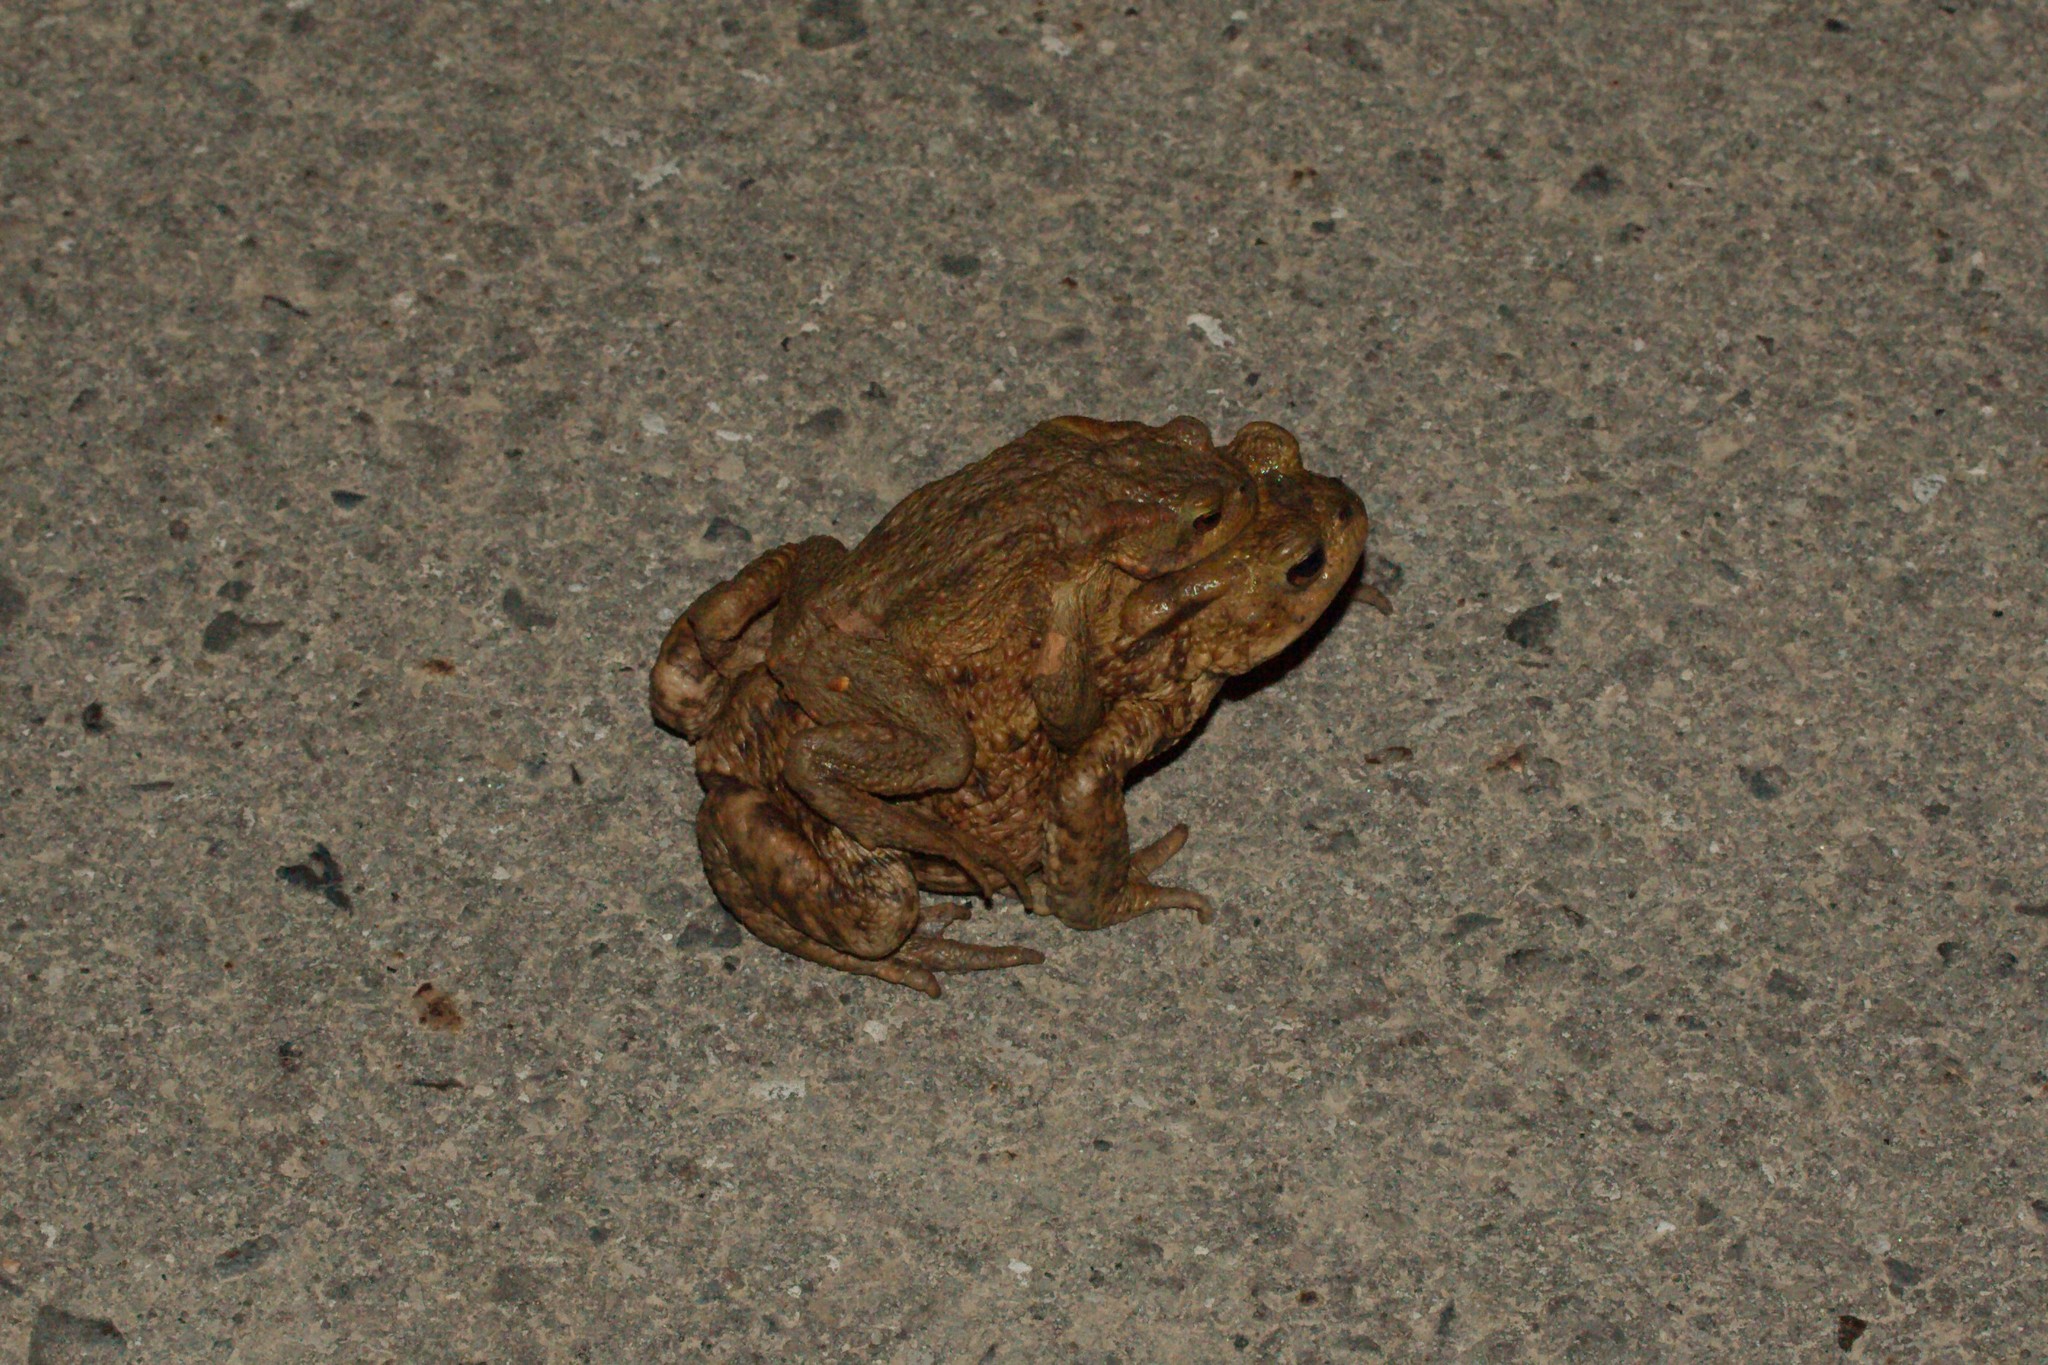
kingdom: Animalia
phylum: Chordata
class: Amphibia
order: Anura
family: Bufonidae
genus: Bufo
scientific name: Bufo bufo
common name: Common toad
